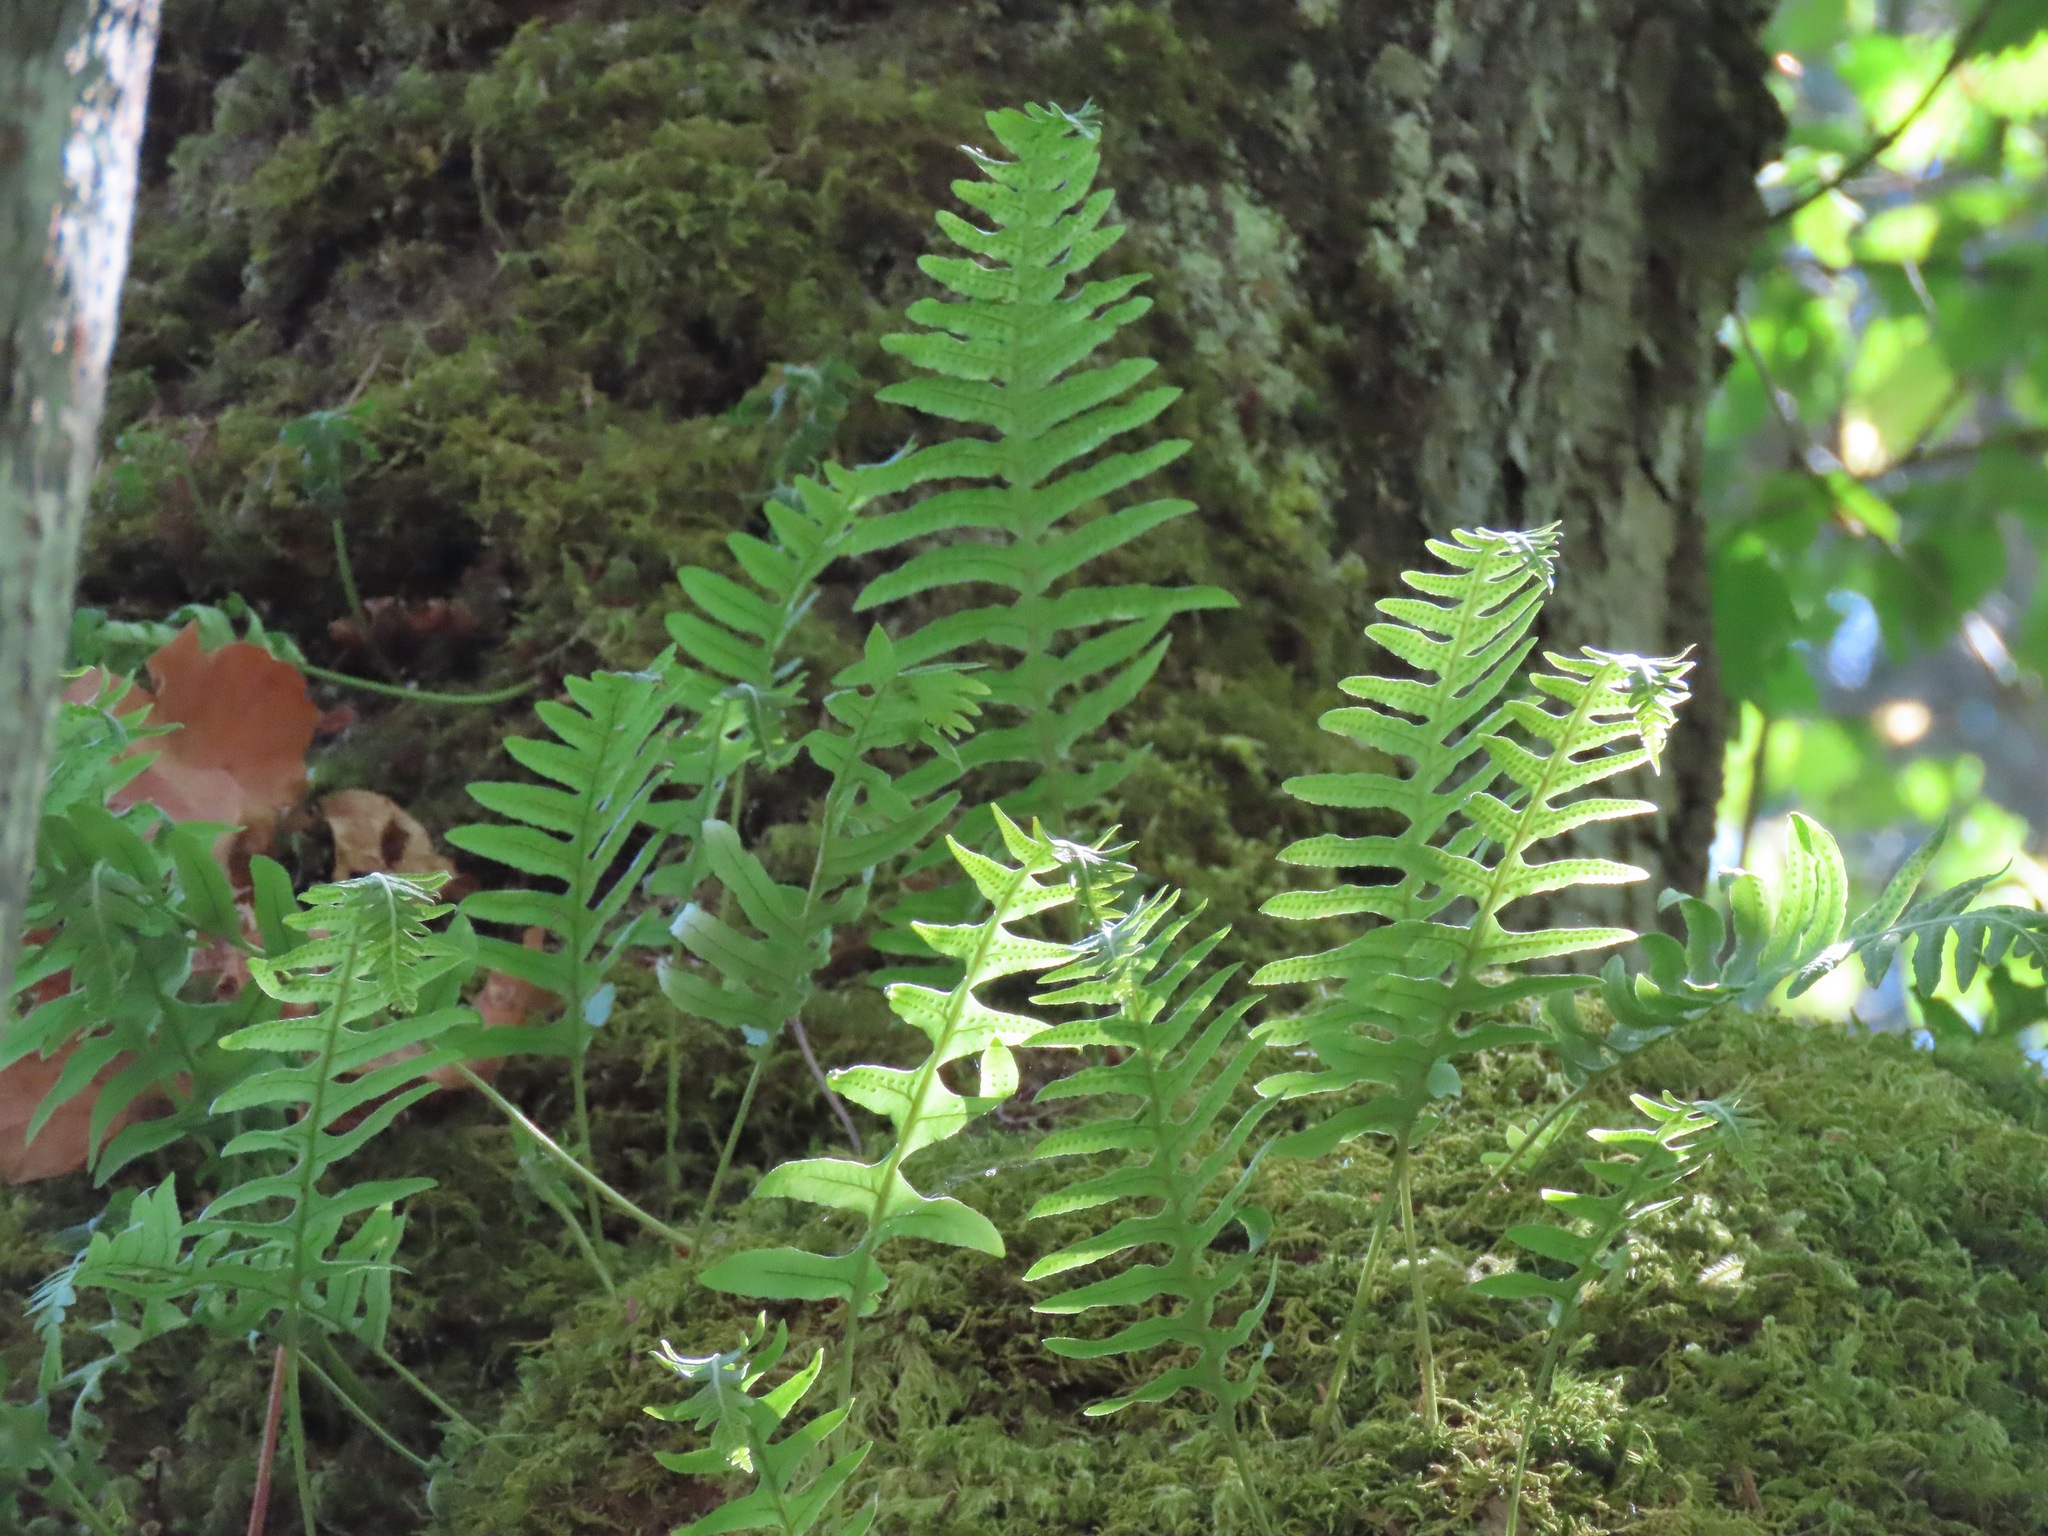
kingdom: Plantae
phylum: Tracheophyta
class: Polypodiopsida
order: Polypodiales
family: Polypodiaceae
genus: Polypodium
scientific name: Polypodium glycyrrhiza
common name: Licorice fern
